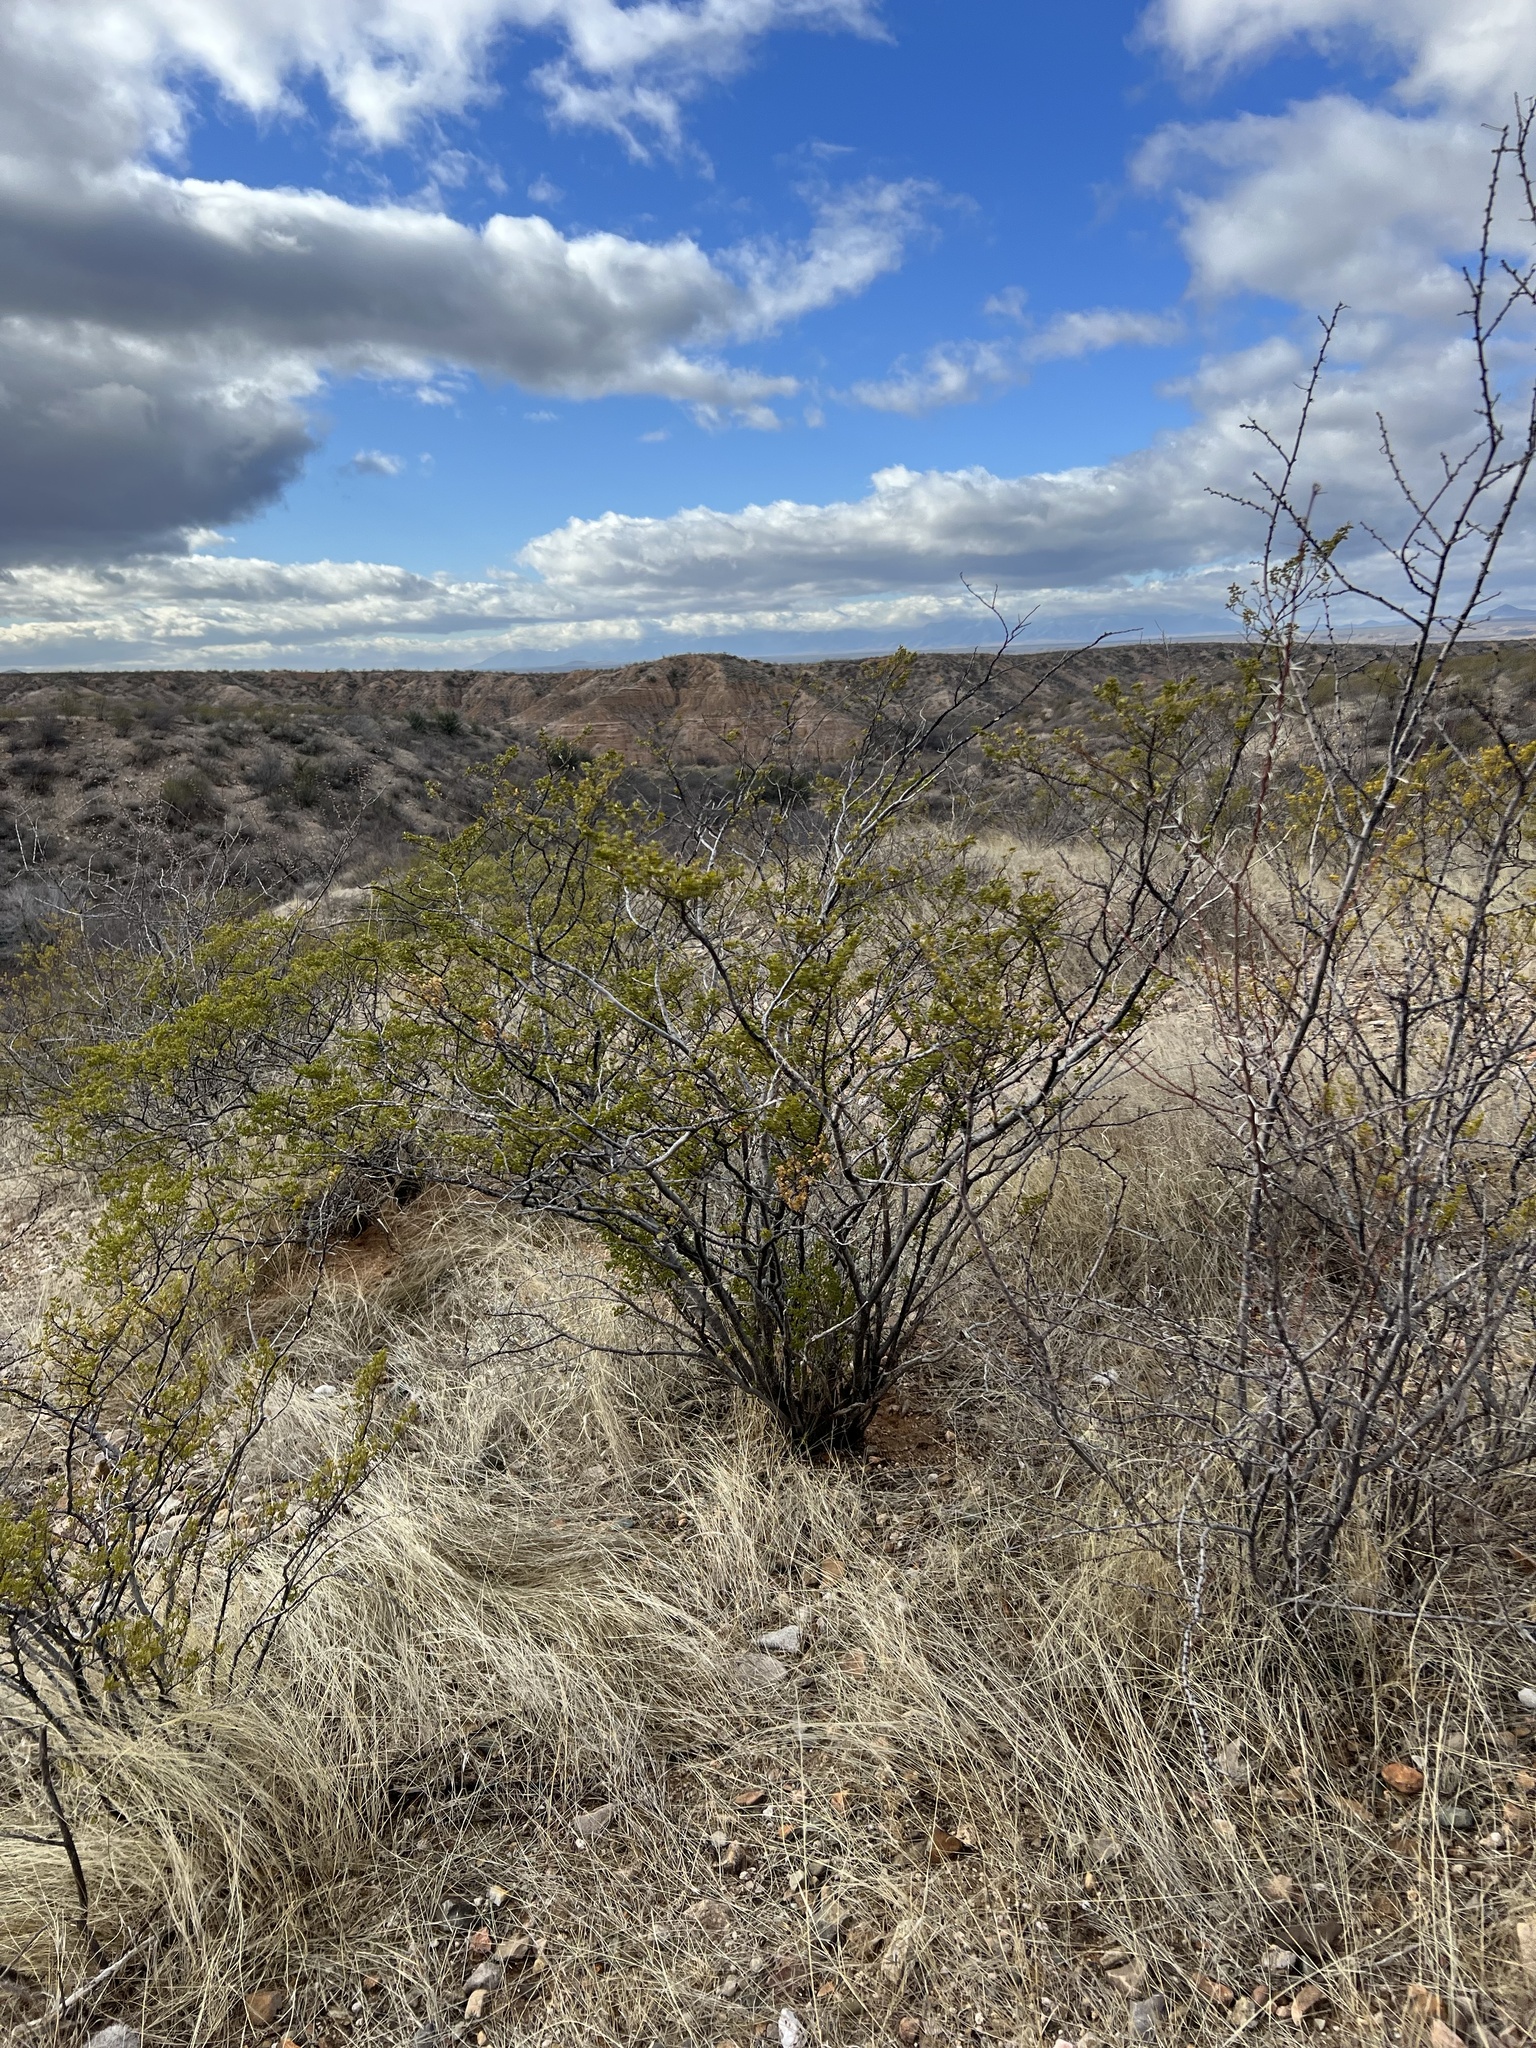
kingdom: Plantae
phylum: Tracheophyta
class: Magnoliopsida
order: Zygophyllales
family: Zygophyllaceae
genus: Larrea
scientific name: Larrea tridentata
